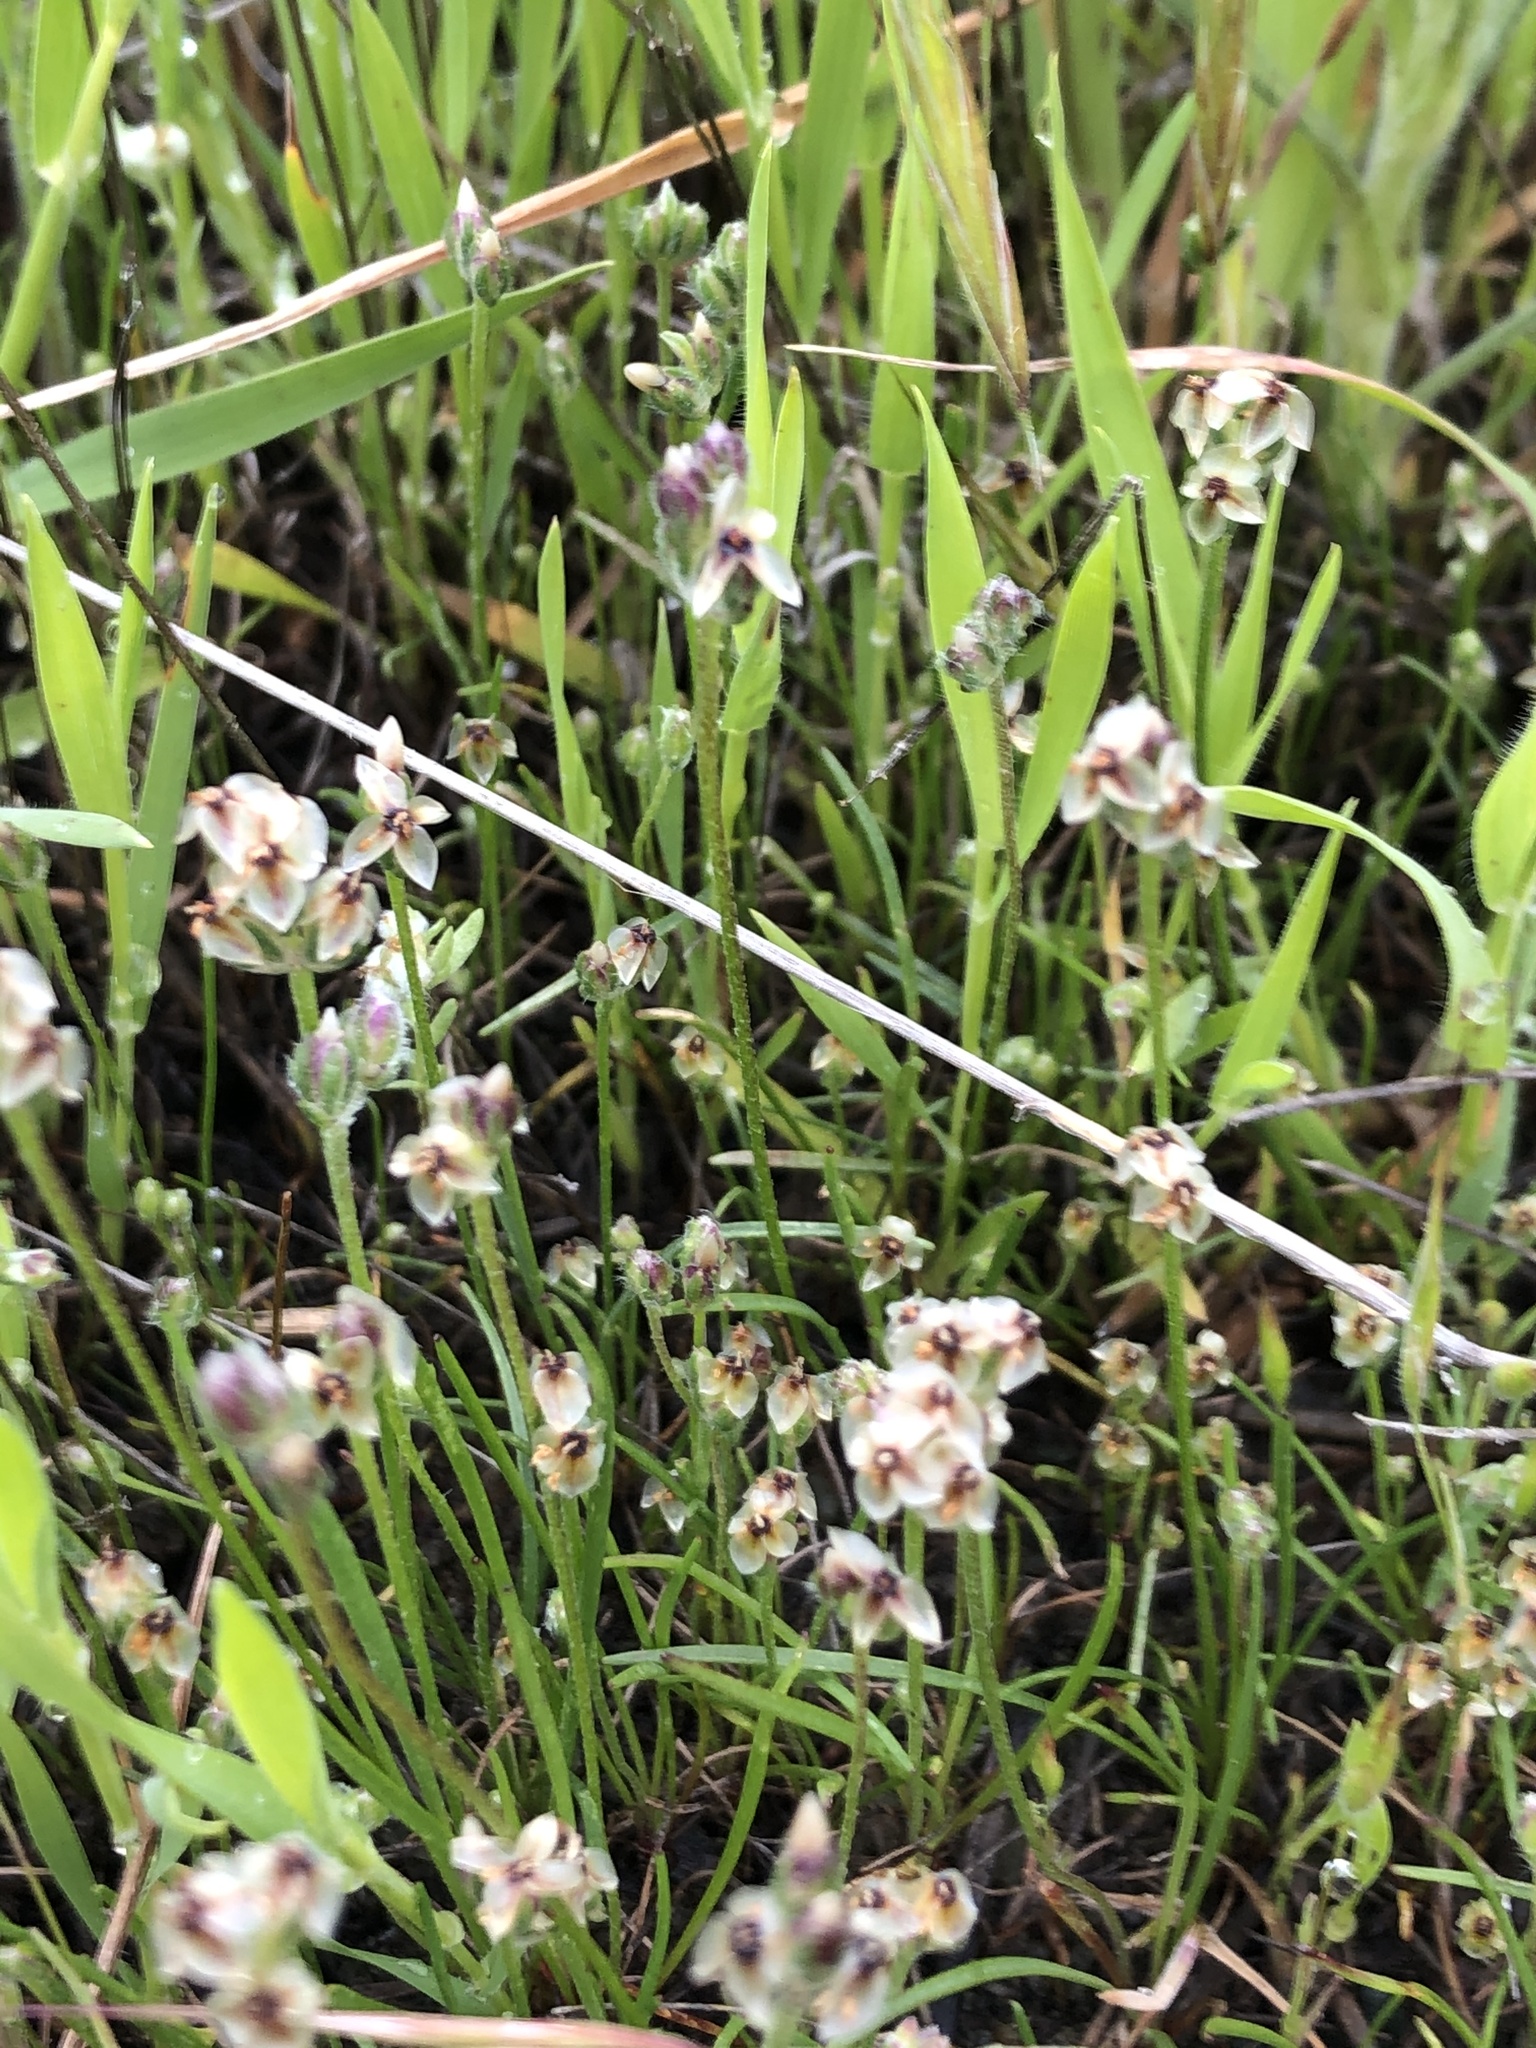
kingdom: Plantae
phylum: Tracheophyta
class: Magnoliopsida
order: Lamiales
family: Plantaginaceae
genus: Plantago
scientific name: Plantago erecta
